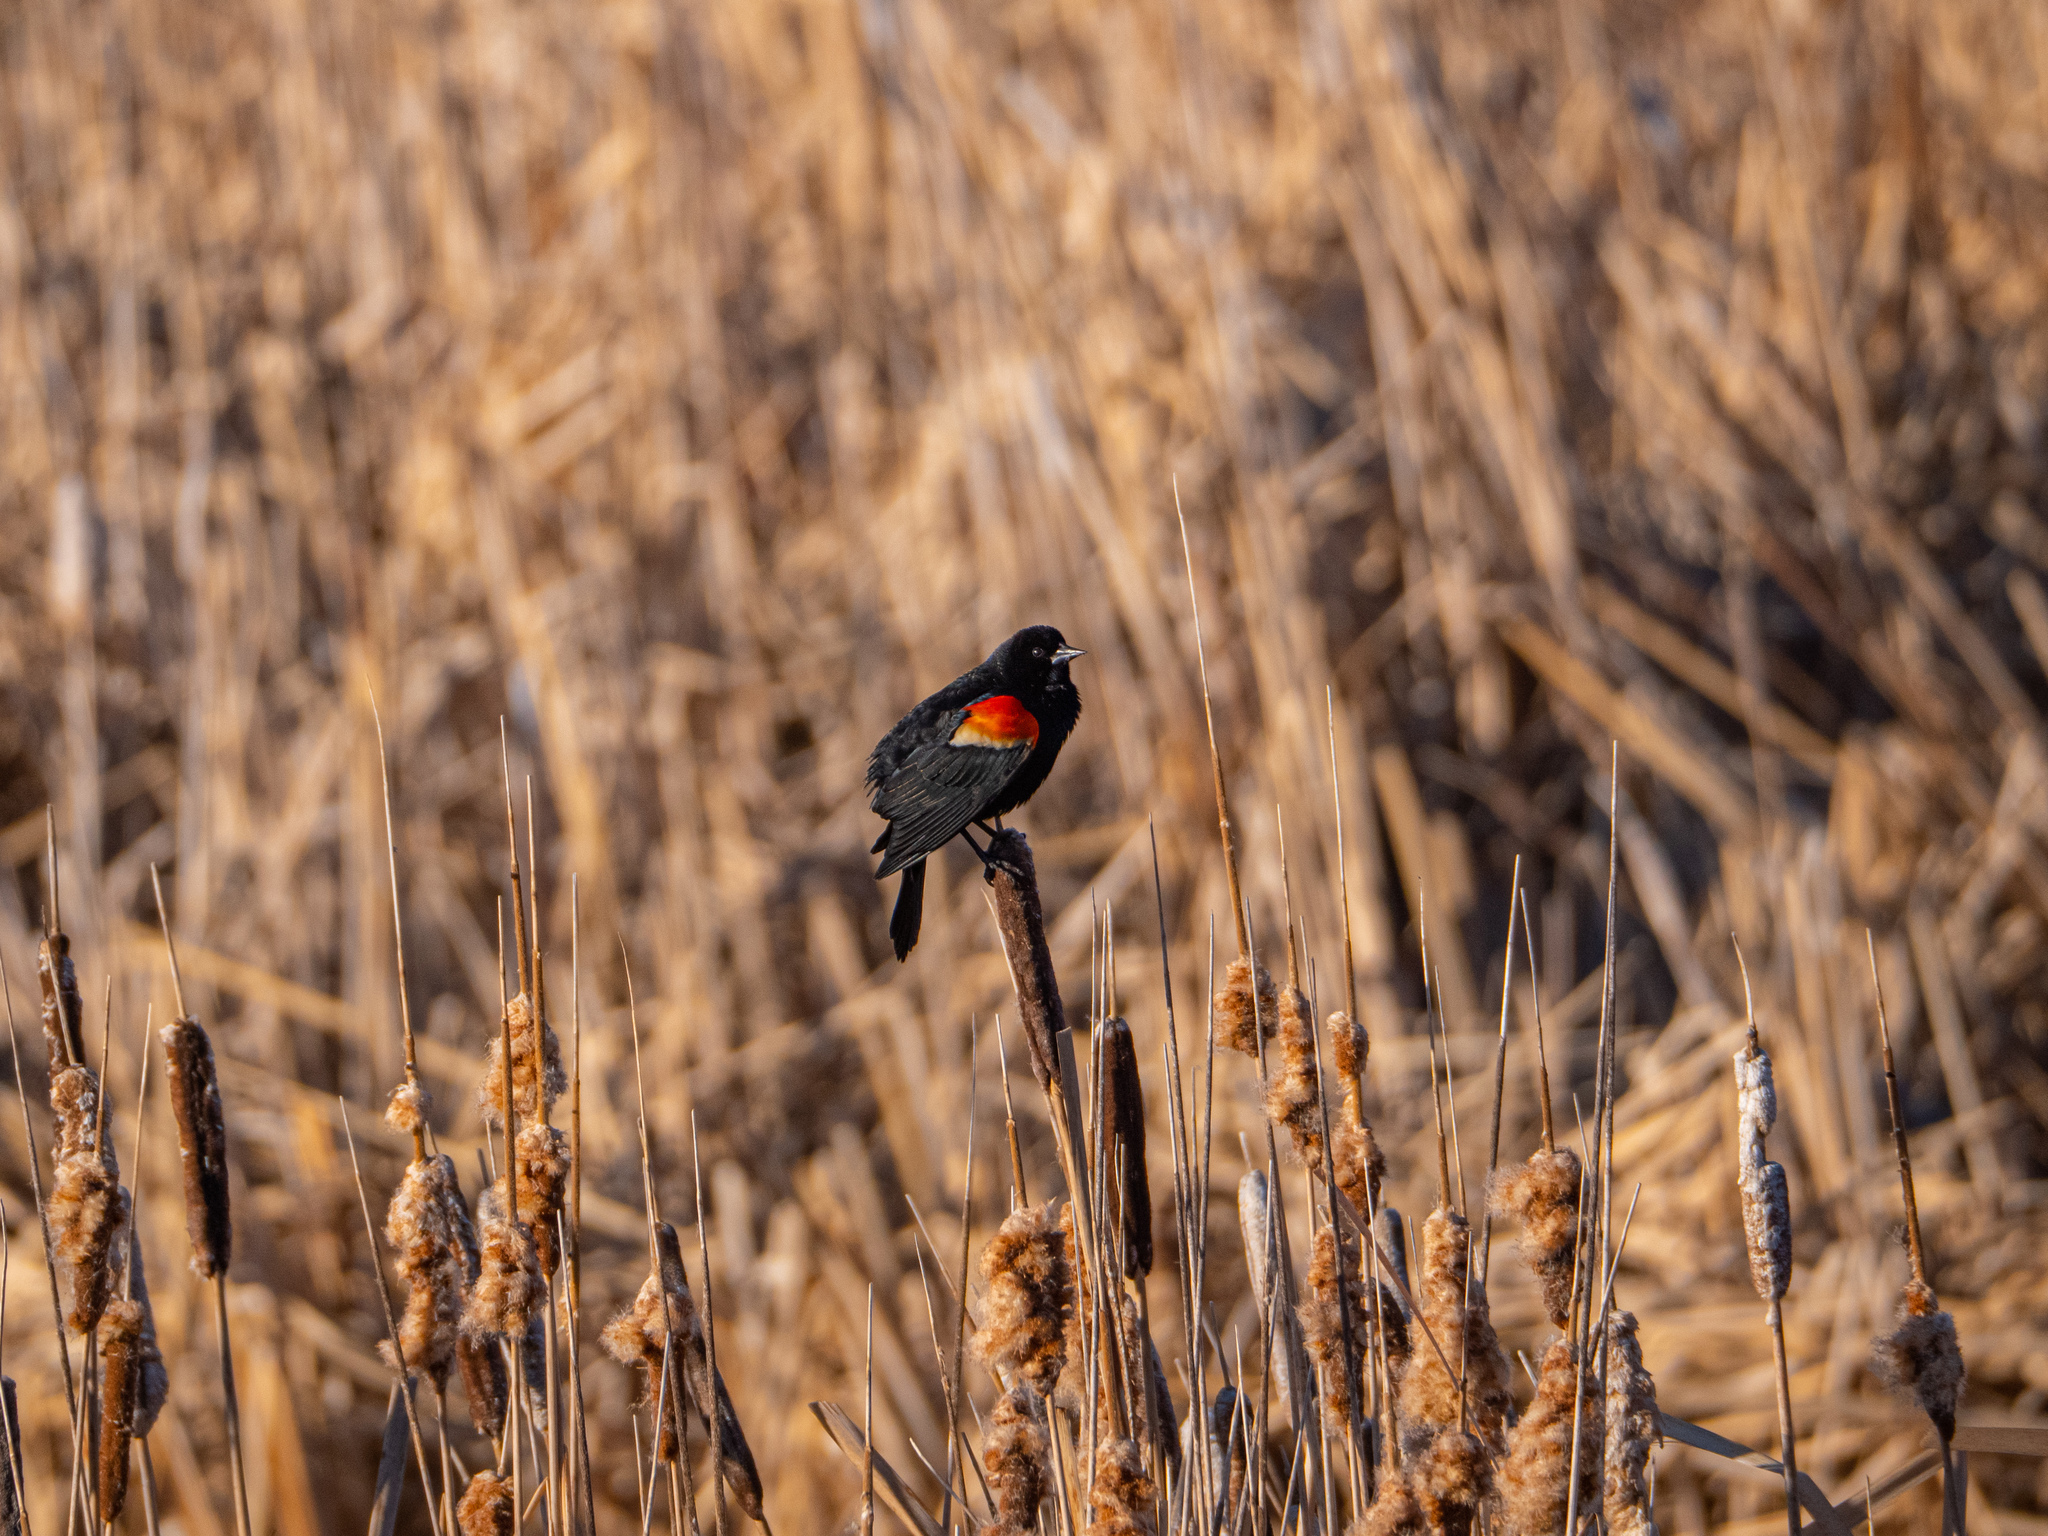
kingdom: Animalia
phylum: Chordata
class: Aves
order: Passeriformes
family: Icteridae
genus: Agelaius
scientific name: Agelaius phoeniceus
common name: Red-winged blackbird
